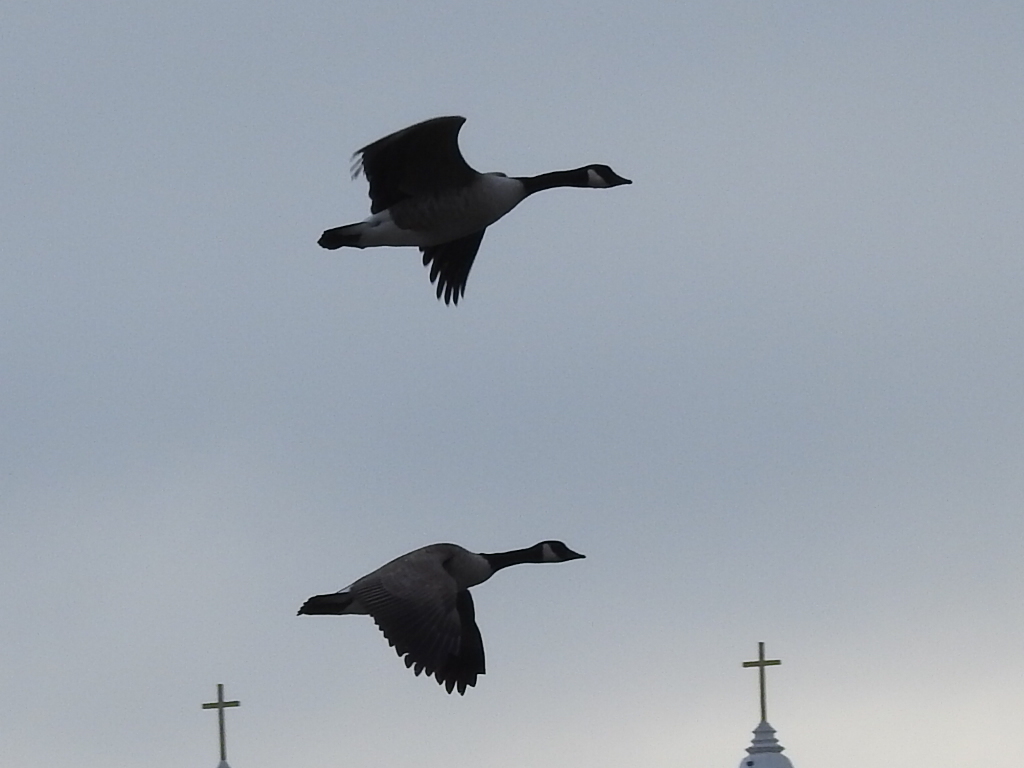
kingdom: Animalia
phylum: Chordata
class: Aves
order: Anseriformes
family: Anatidae
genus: Branta
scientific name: Branta canadensis
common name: Canada goose
